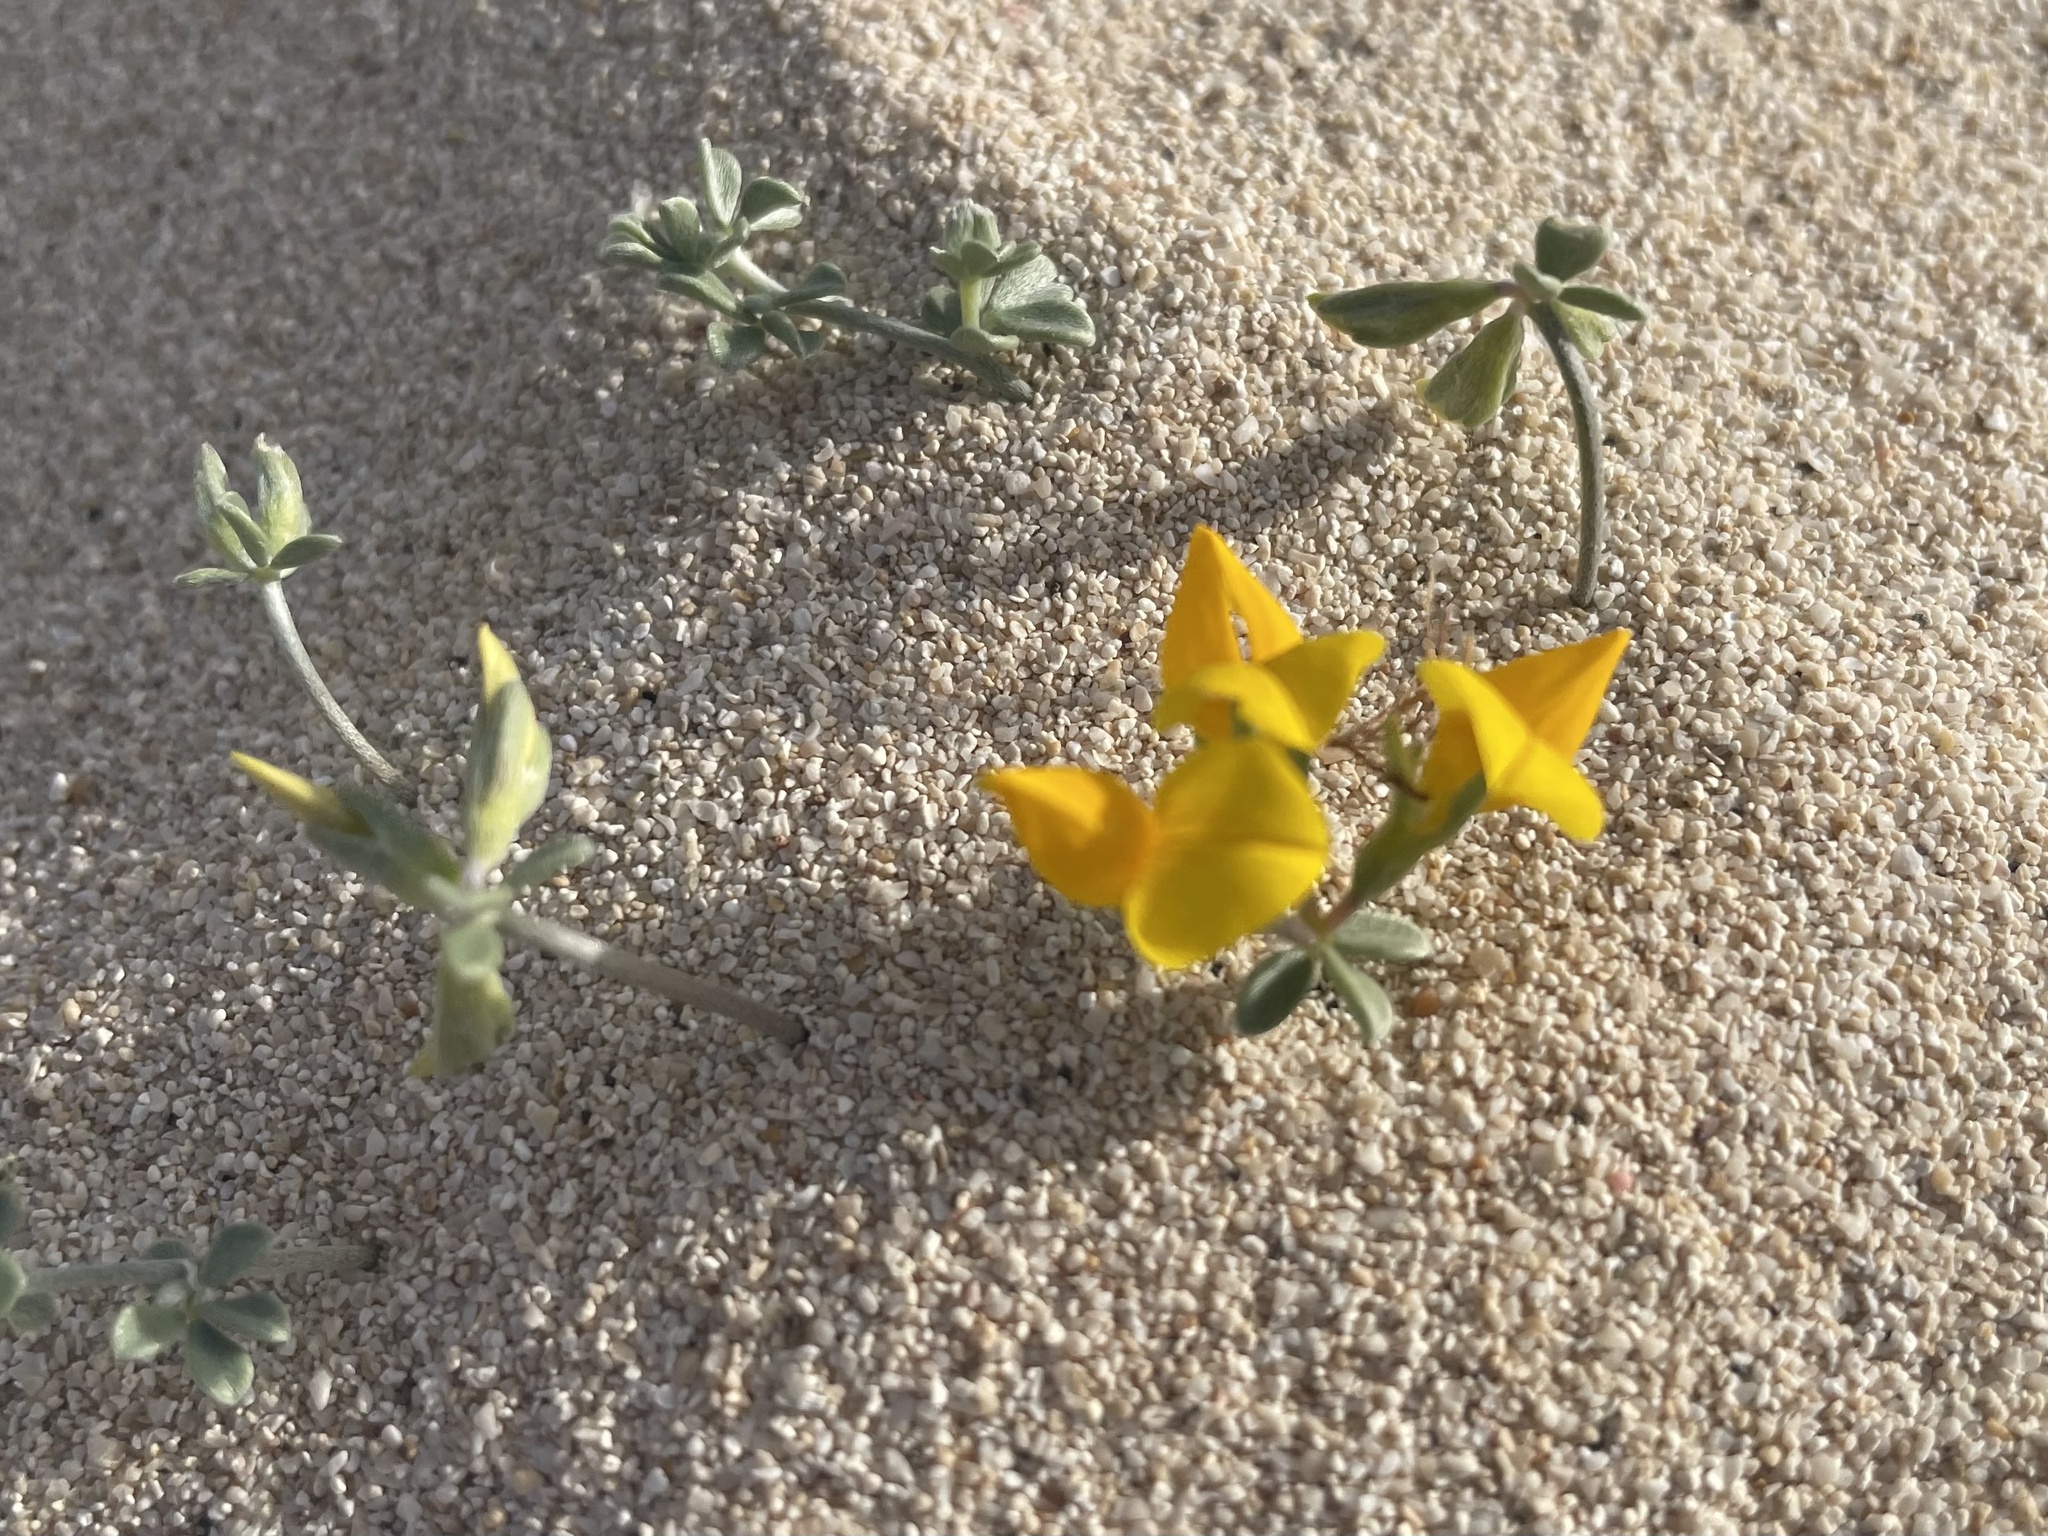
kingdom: Plantae
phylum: Tracheophyta
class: Magnoliopsida
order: Fabales
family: Fabaceae
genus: Lotus
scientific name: Lotus lancerottensis
